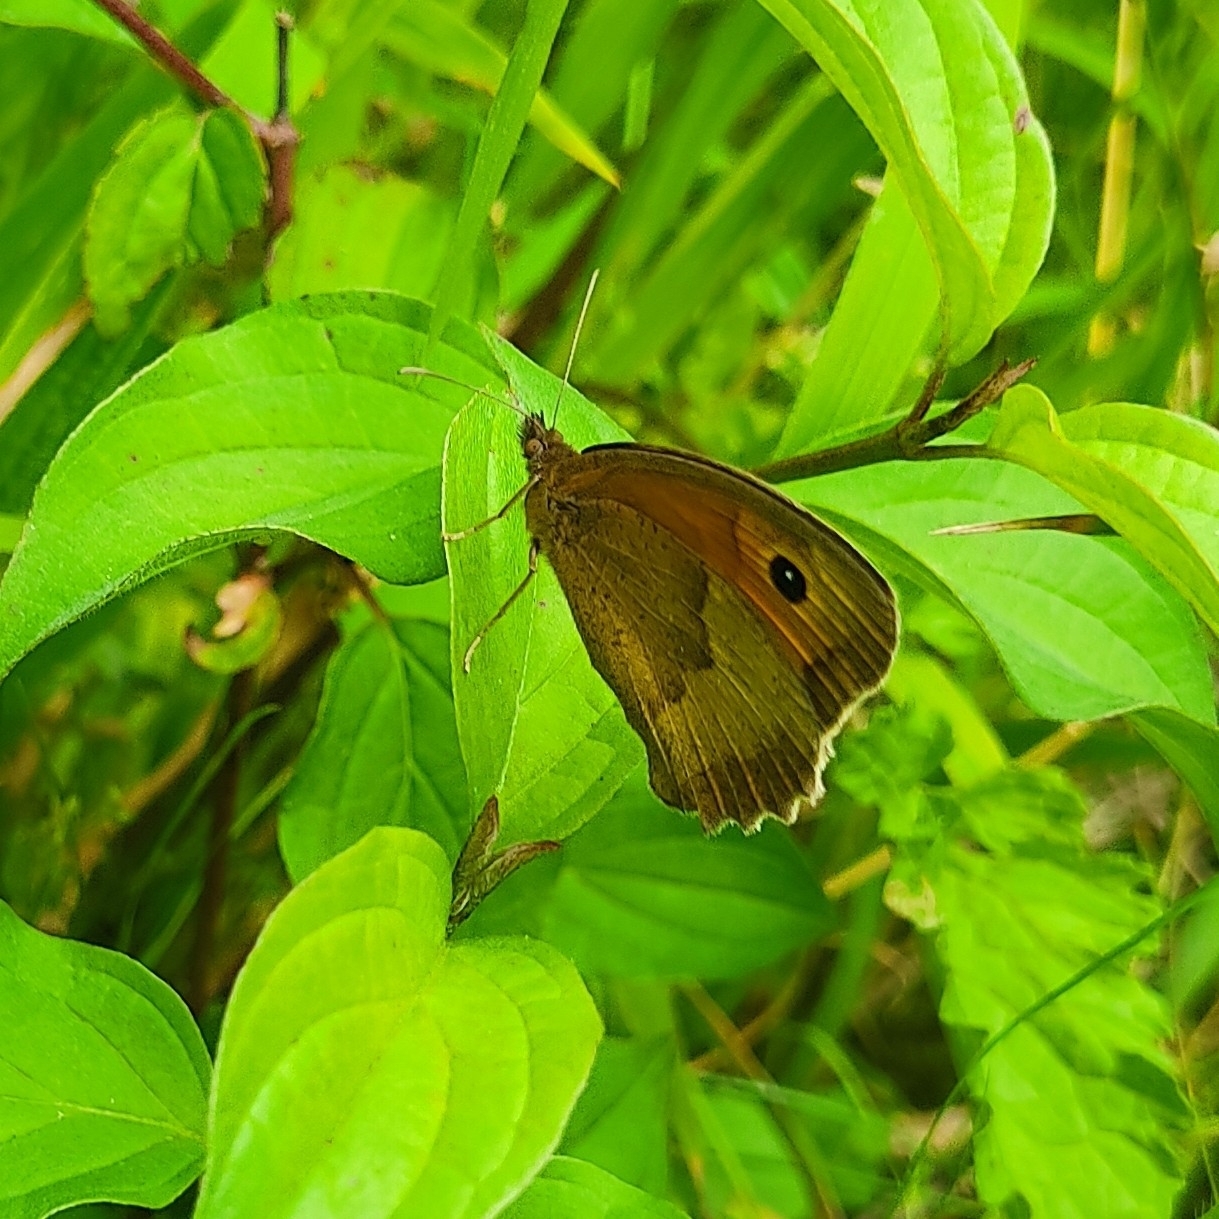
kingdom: Animalia
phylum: Arthropoda
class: Insecta
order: Lepidoptera
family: Nymphalidae
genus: Maniola
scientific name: Maniola jurtina
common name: Meadow brown
